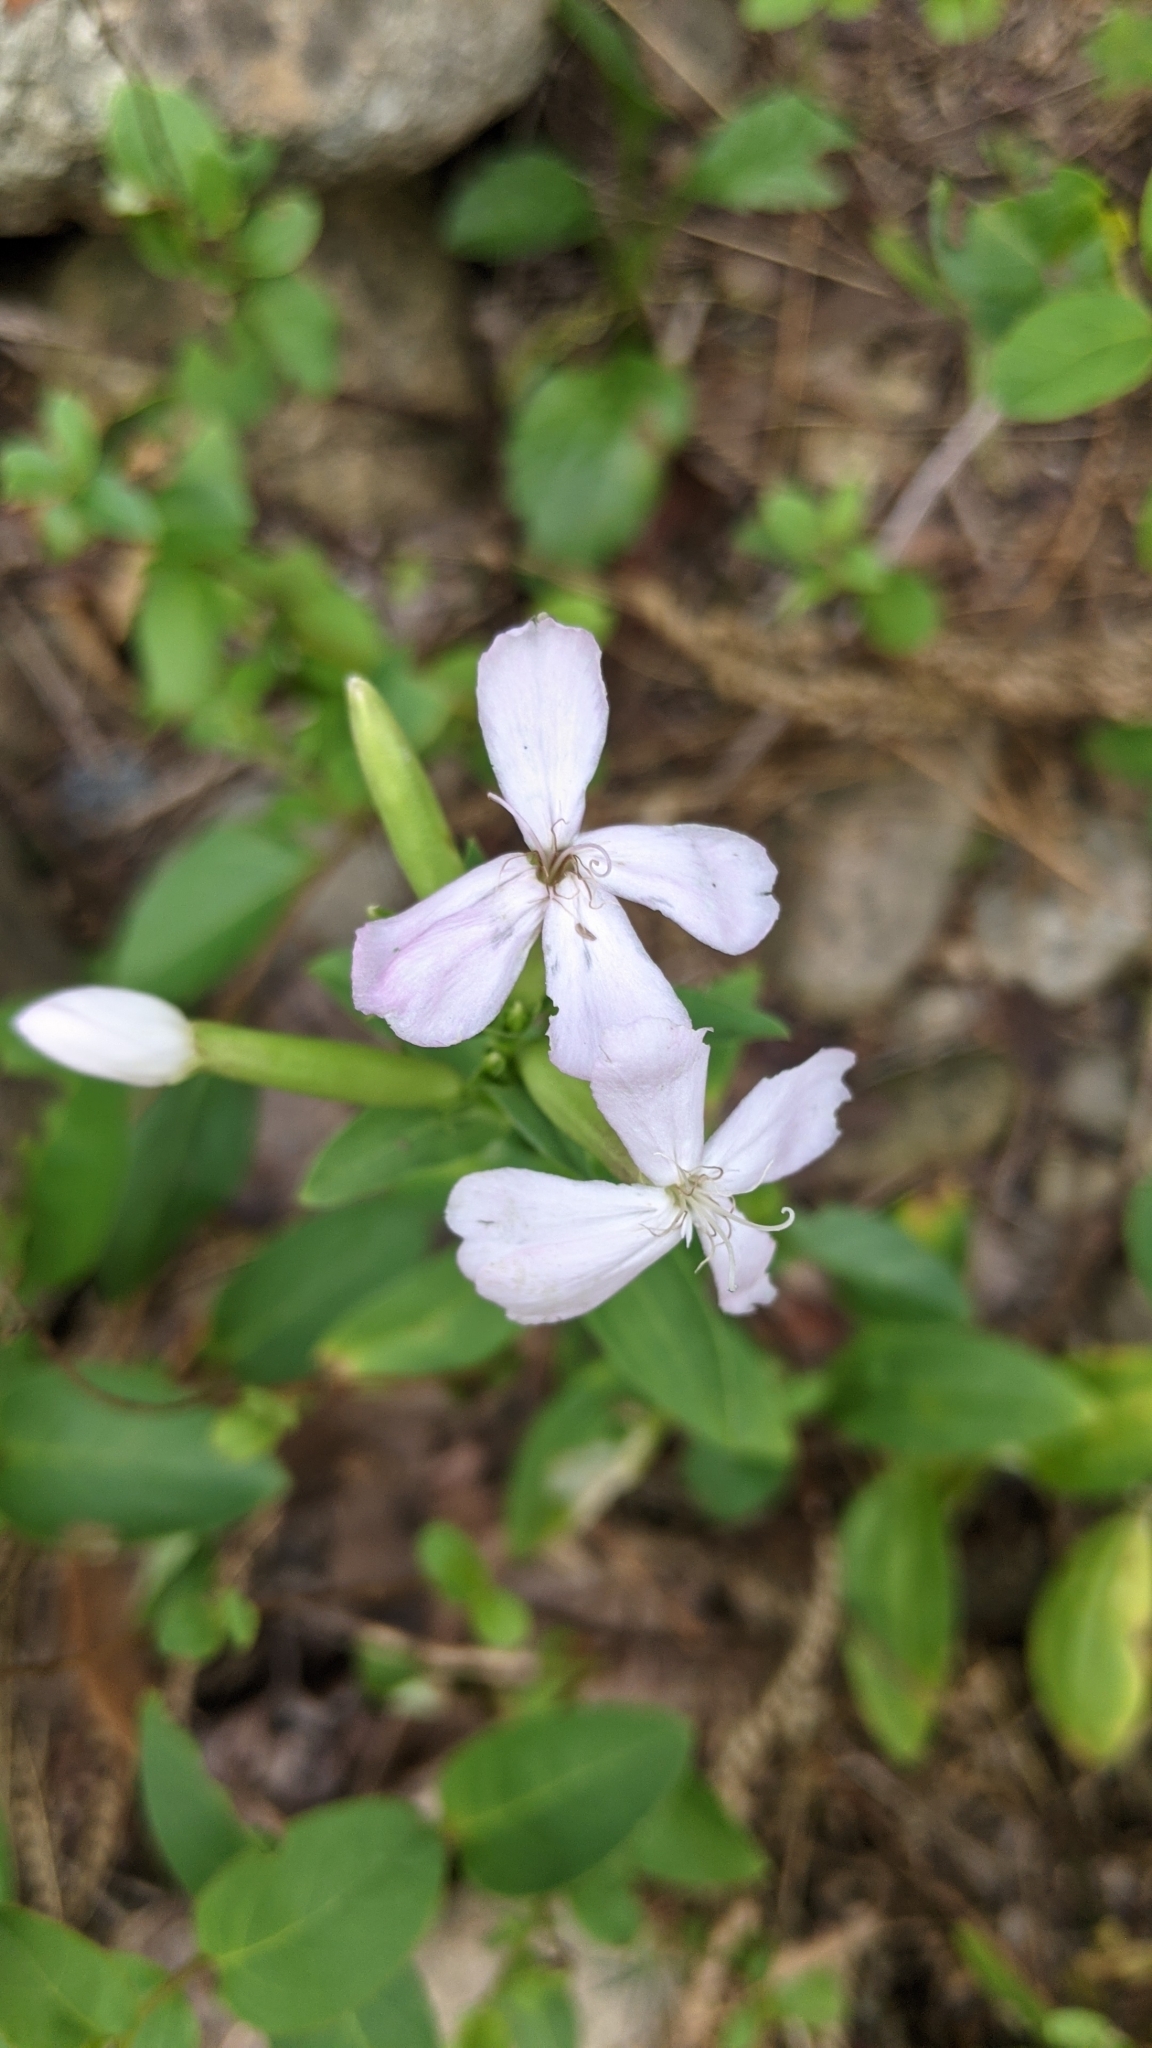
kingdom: Plantae
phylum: Tracheophyta
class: Magnoliopsida
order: Caryophyllales
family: Caryophyllaceae
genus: Saponaria
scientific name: Saponaria officinalis
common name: Soapwort
